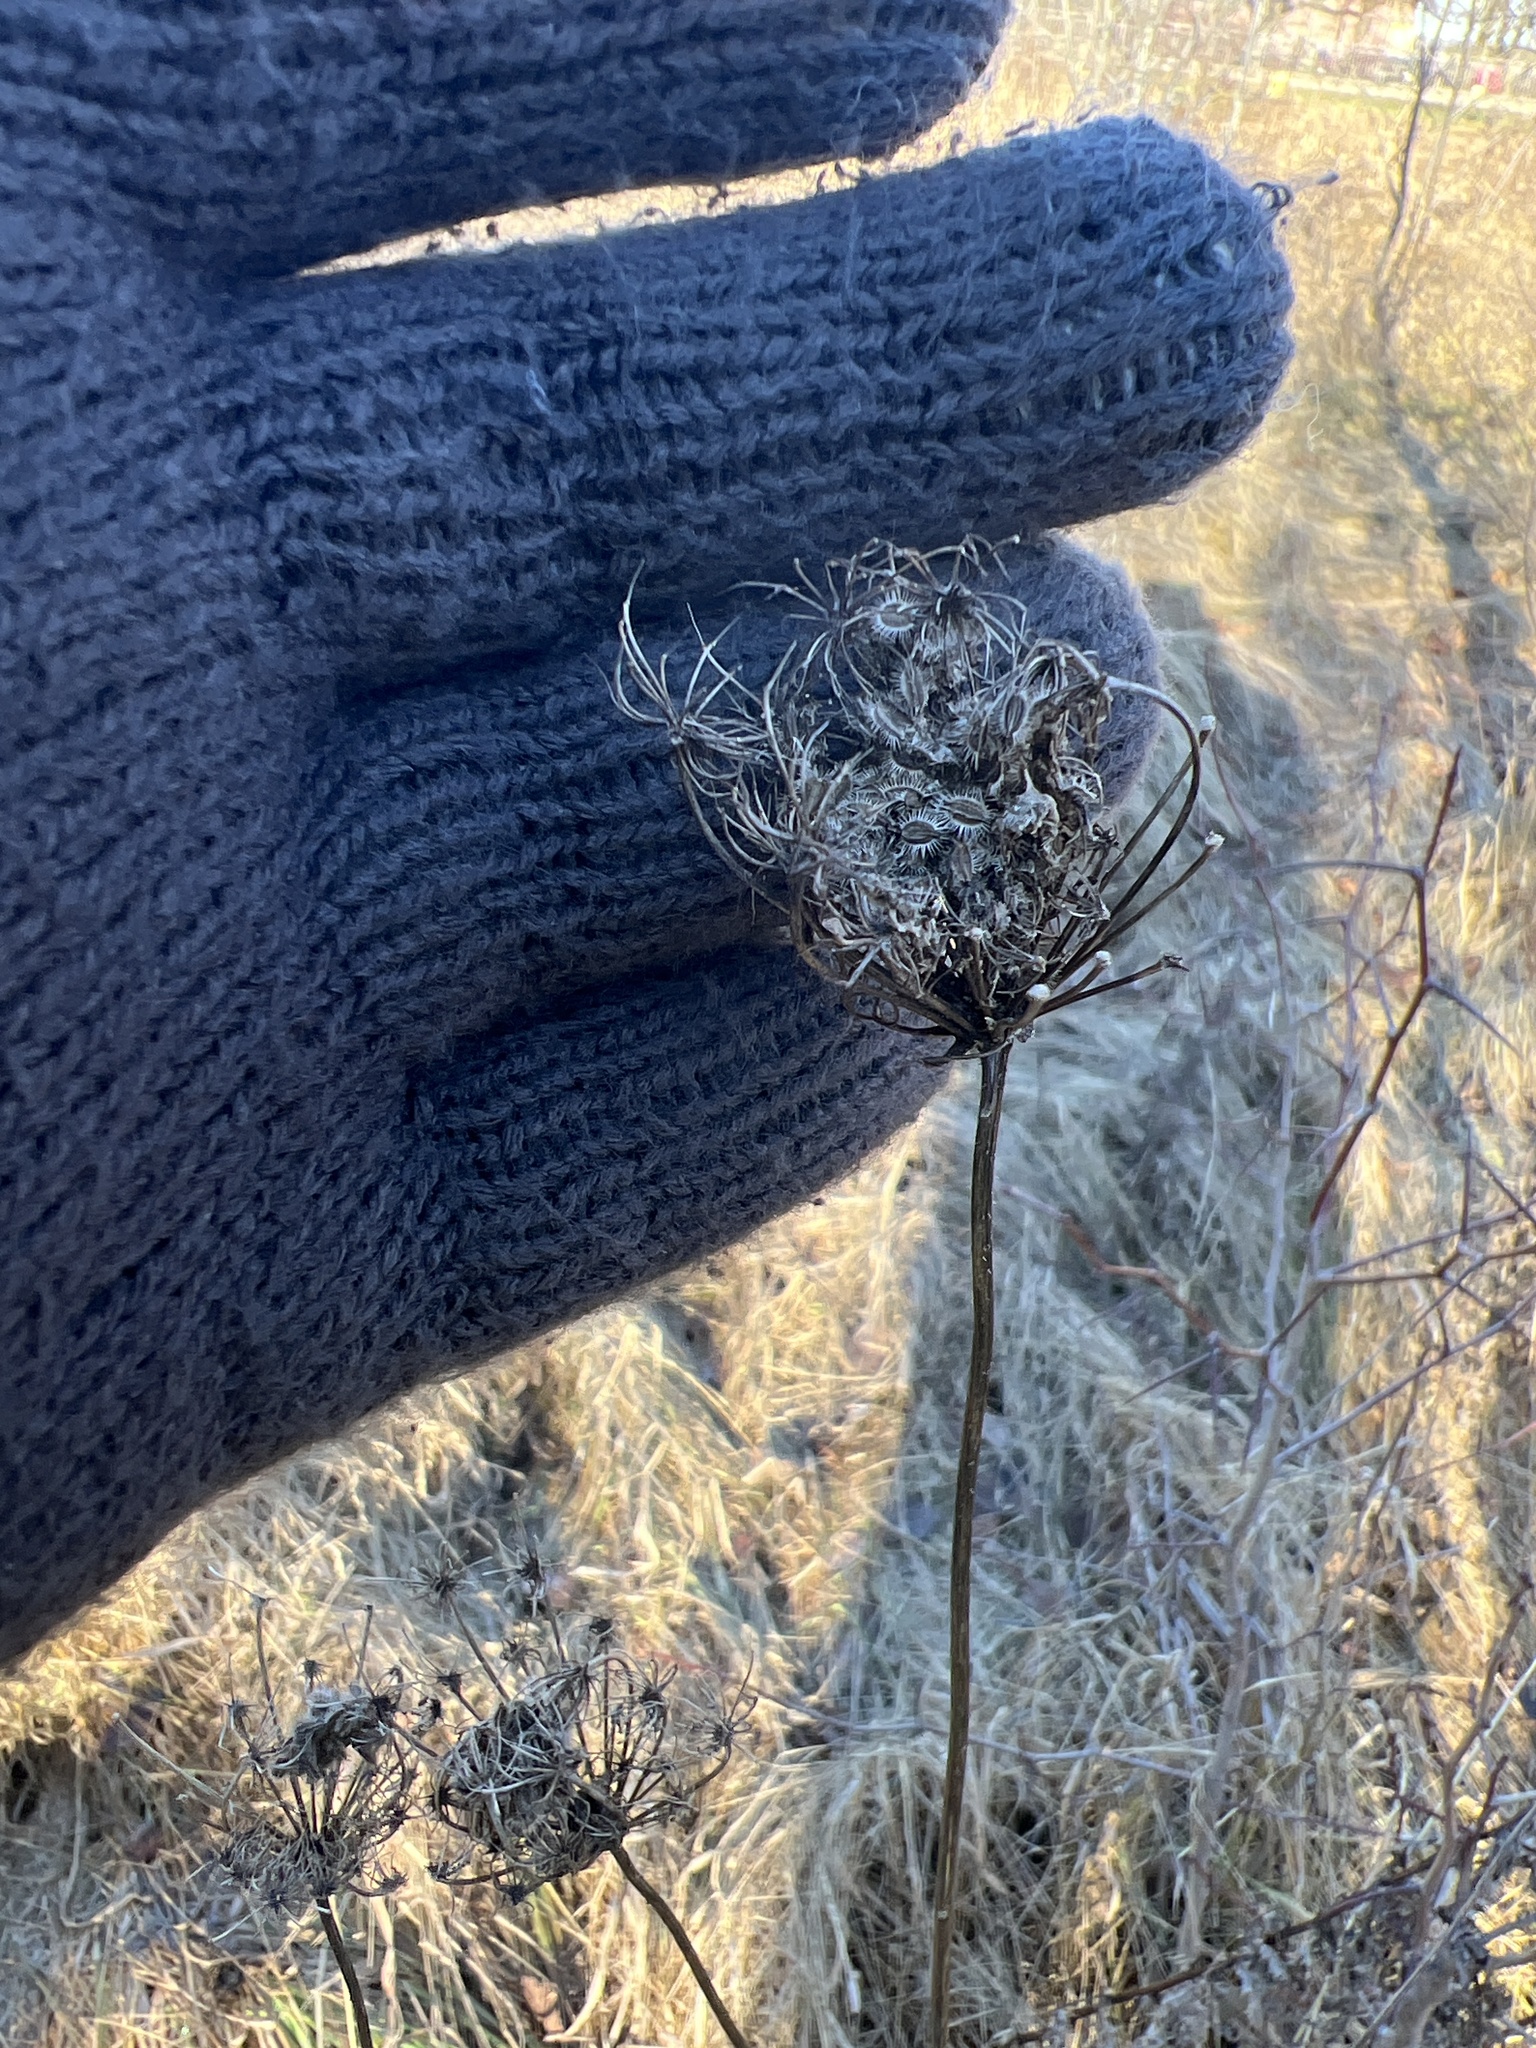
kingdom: Plantae
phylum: Tracheophyta
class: Magnoliopsida
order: Apiales
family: Apiaceae
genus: Daucus
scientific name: Daucus carota
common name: Wild carrot
